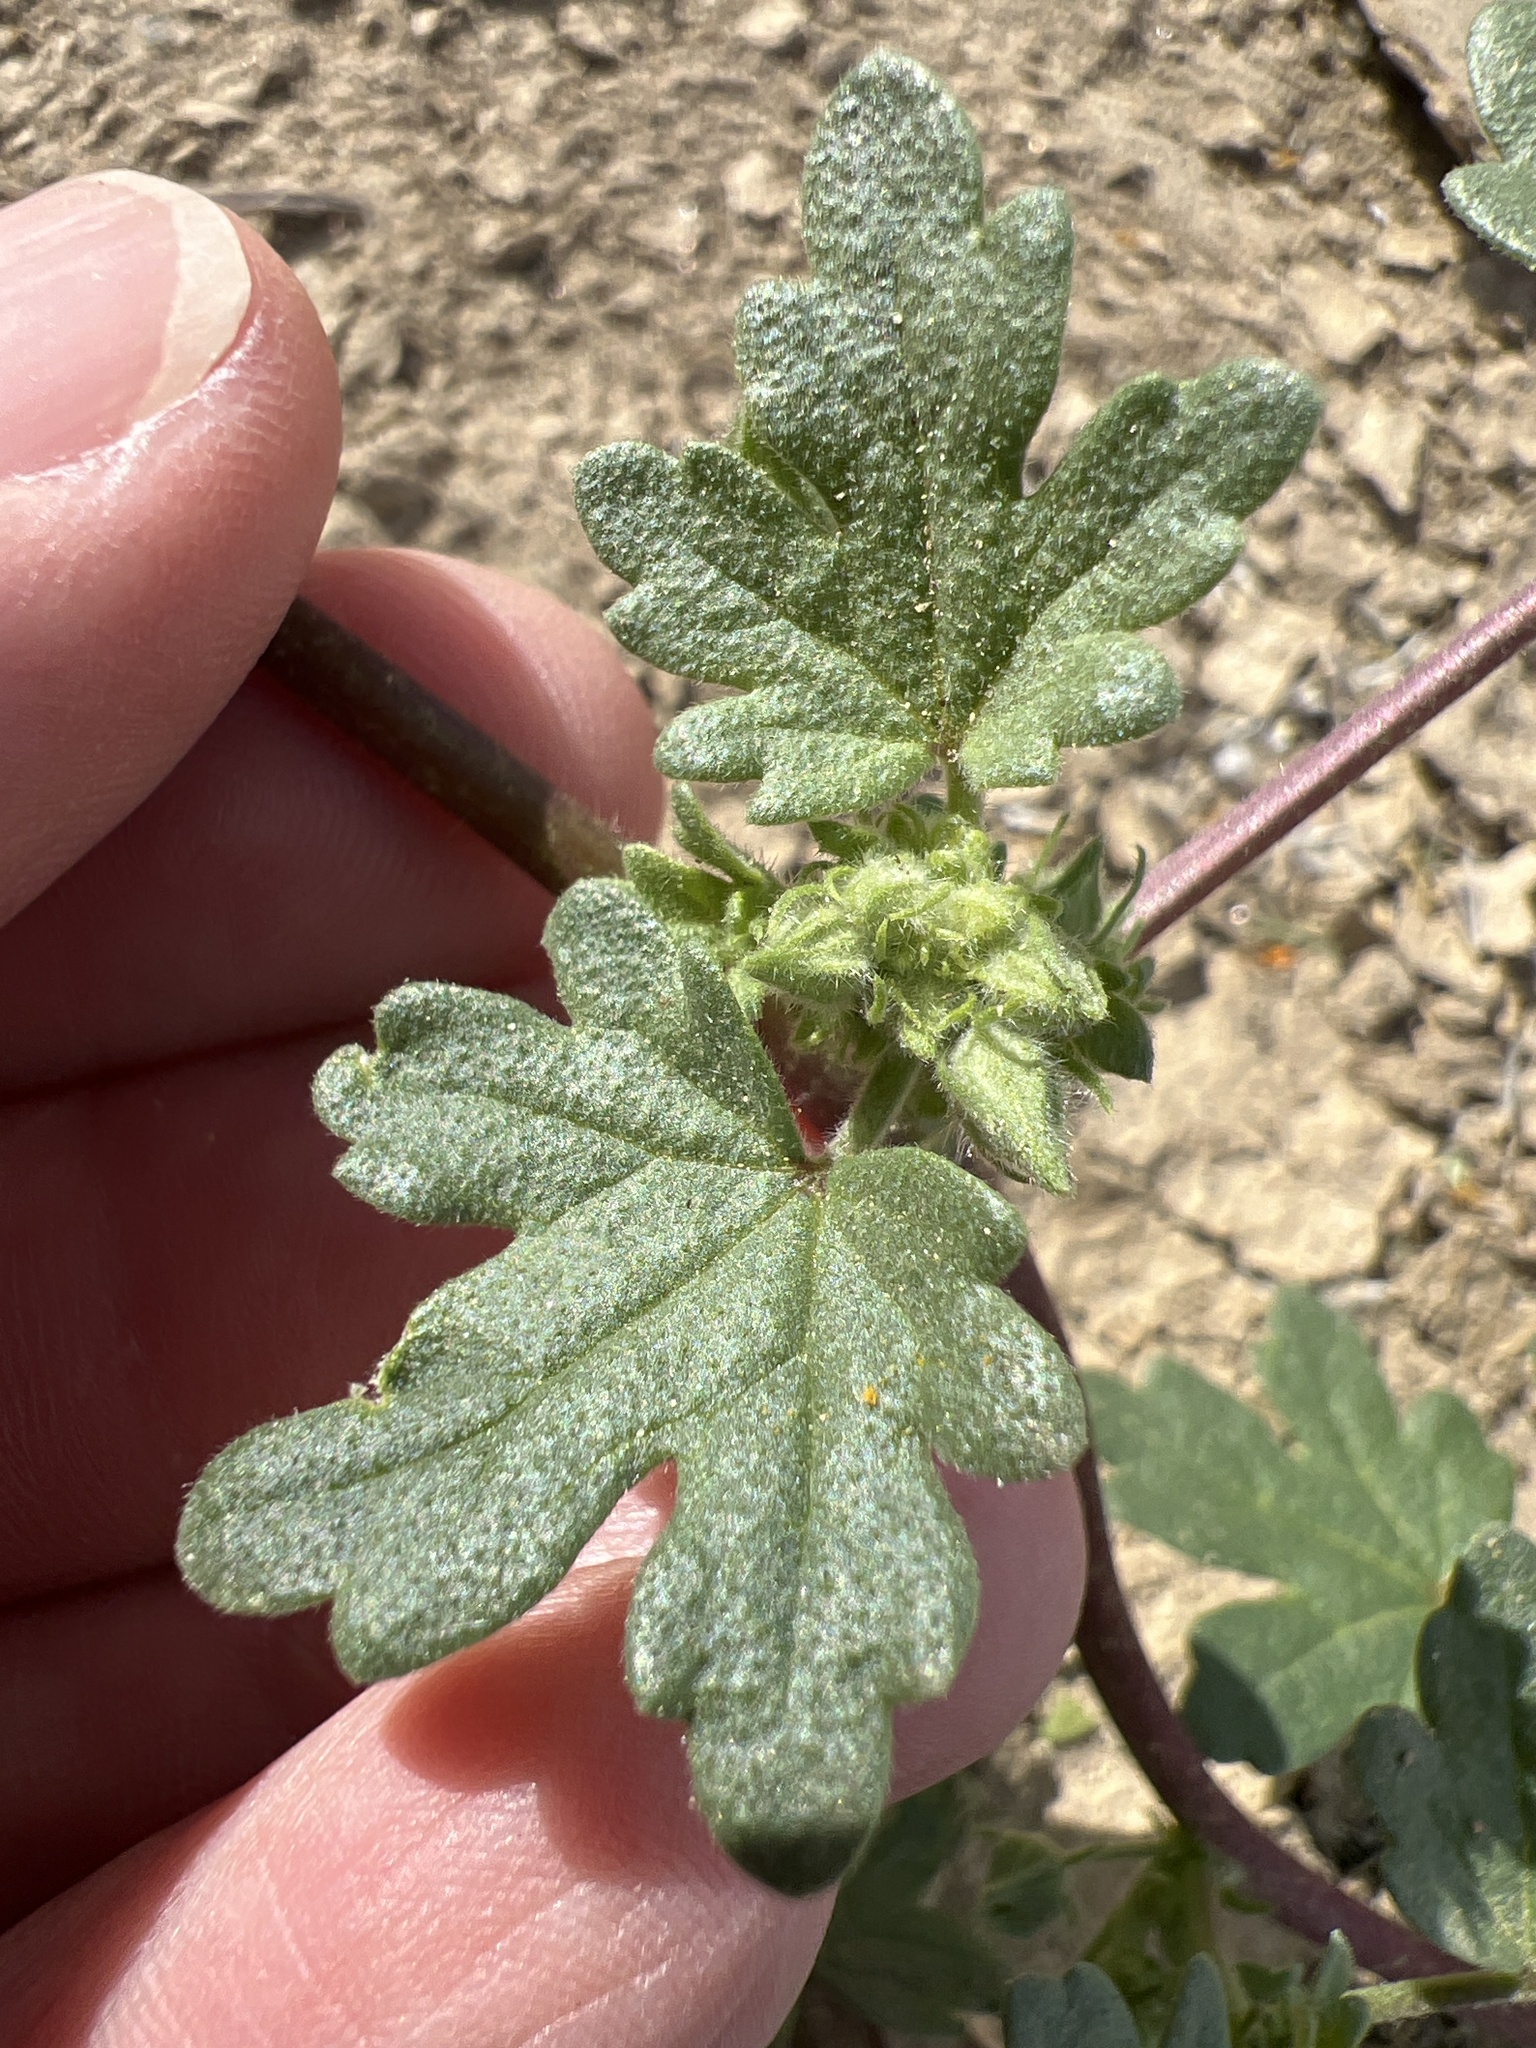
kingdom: Plantae
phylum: Tracheophyta
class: Magnoliopsida
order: Malvales
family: Malvaceae
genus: Eremalche
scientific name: Eremalche exilis
